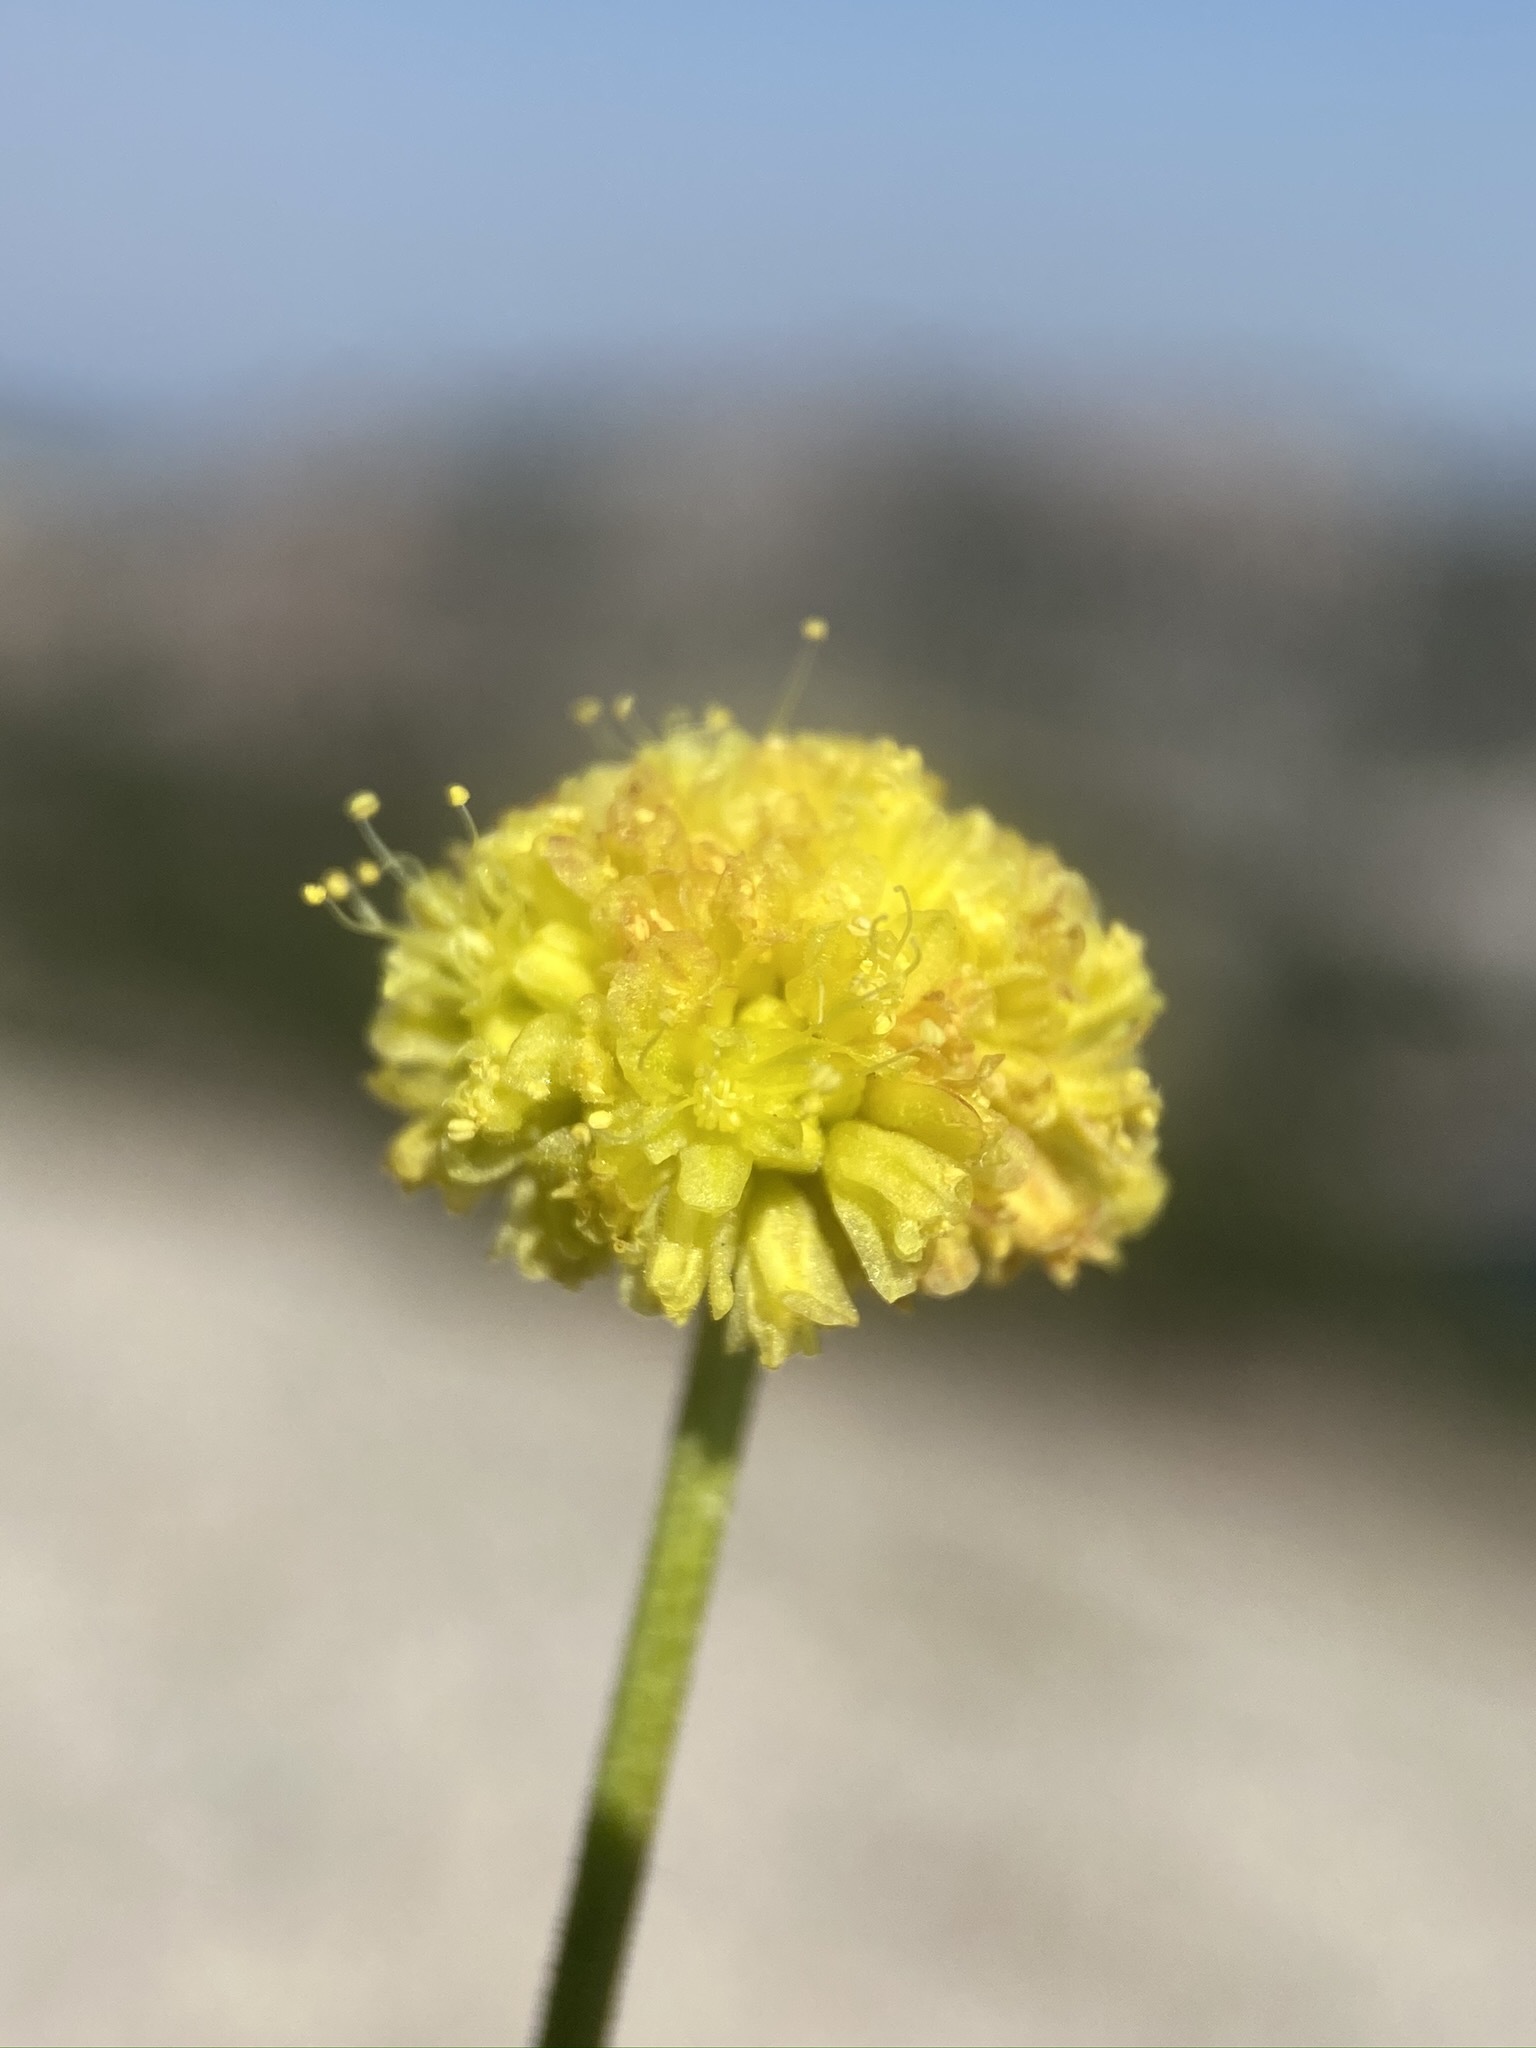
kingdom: Plantae
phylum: Tracheophyta
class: Magnoliopsida
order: Caryophyllales
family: Polygonaceae
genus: Eriogonum
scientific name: Eriogonum rosense
